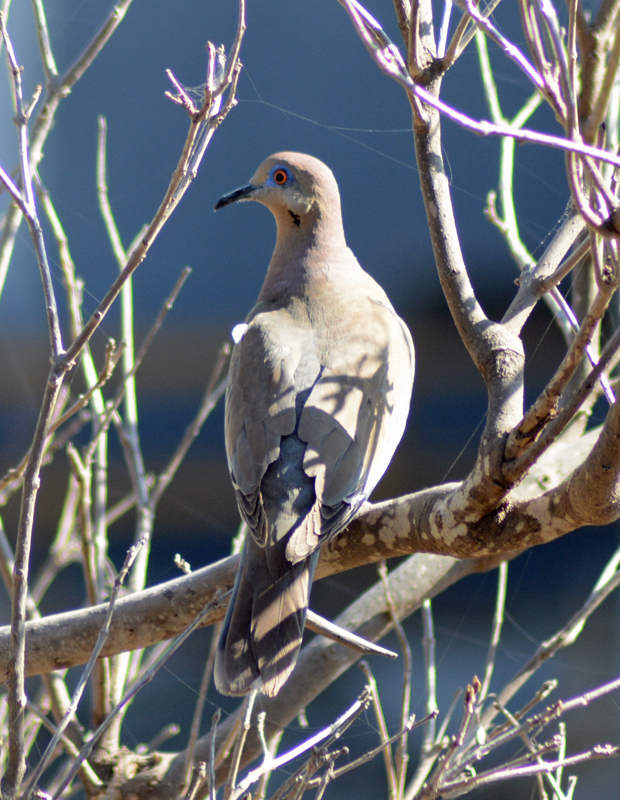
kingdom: Animalia
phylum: Chordata
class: Aves
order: Columbiformes
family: Columbidae
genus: Zenaida
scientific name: Zenaida asiatica
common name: White-winged dove
